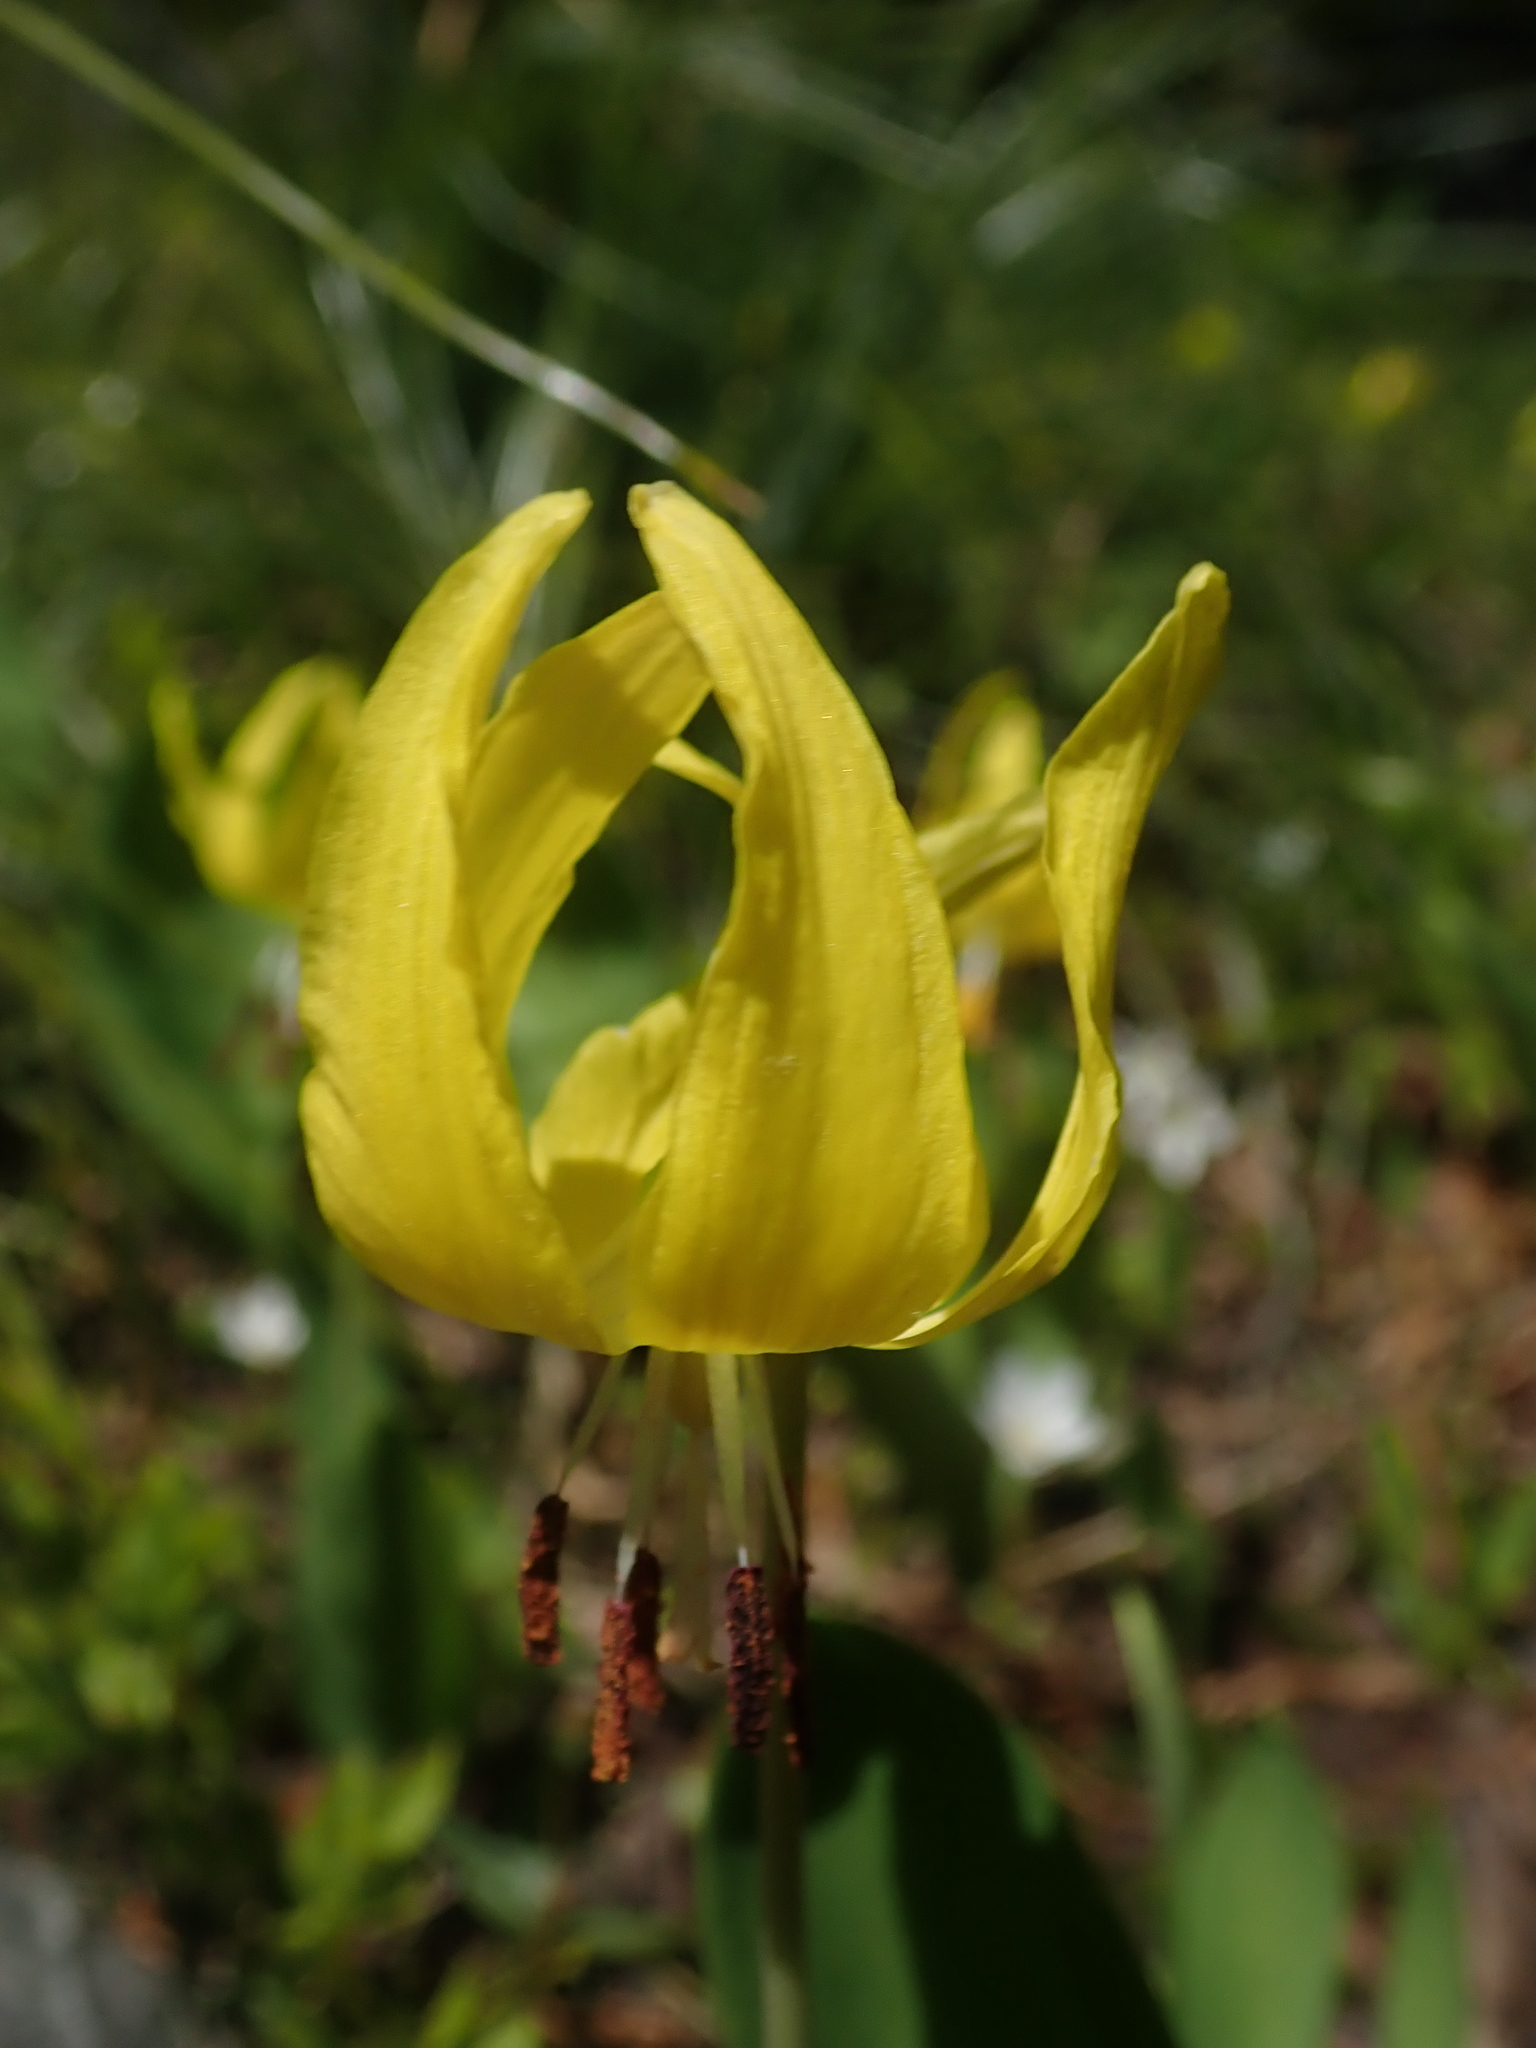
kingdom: Plantae
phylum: Tracheophyta
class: Liliopsida
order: Liliales
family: Liliaceae
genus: Erythronium
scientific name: Erythronium grandiflorum
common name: Avalanche-lily
